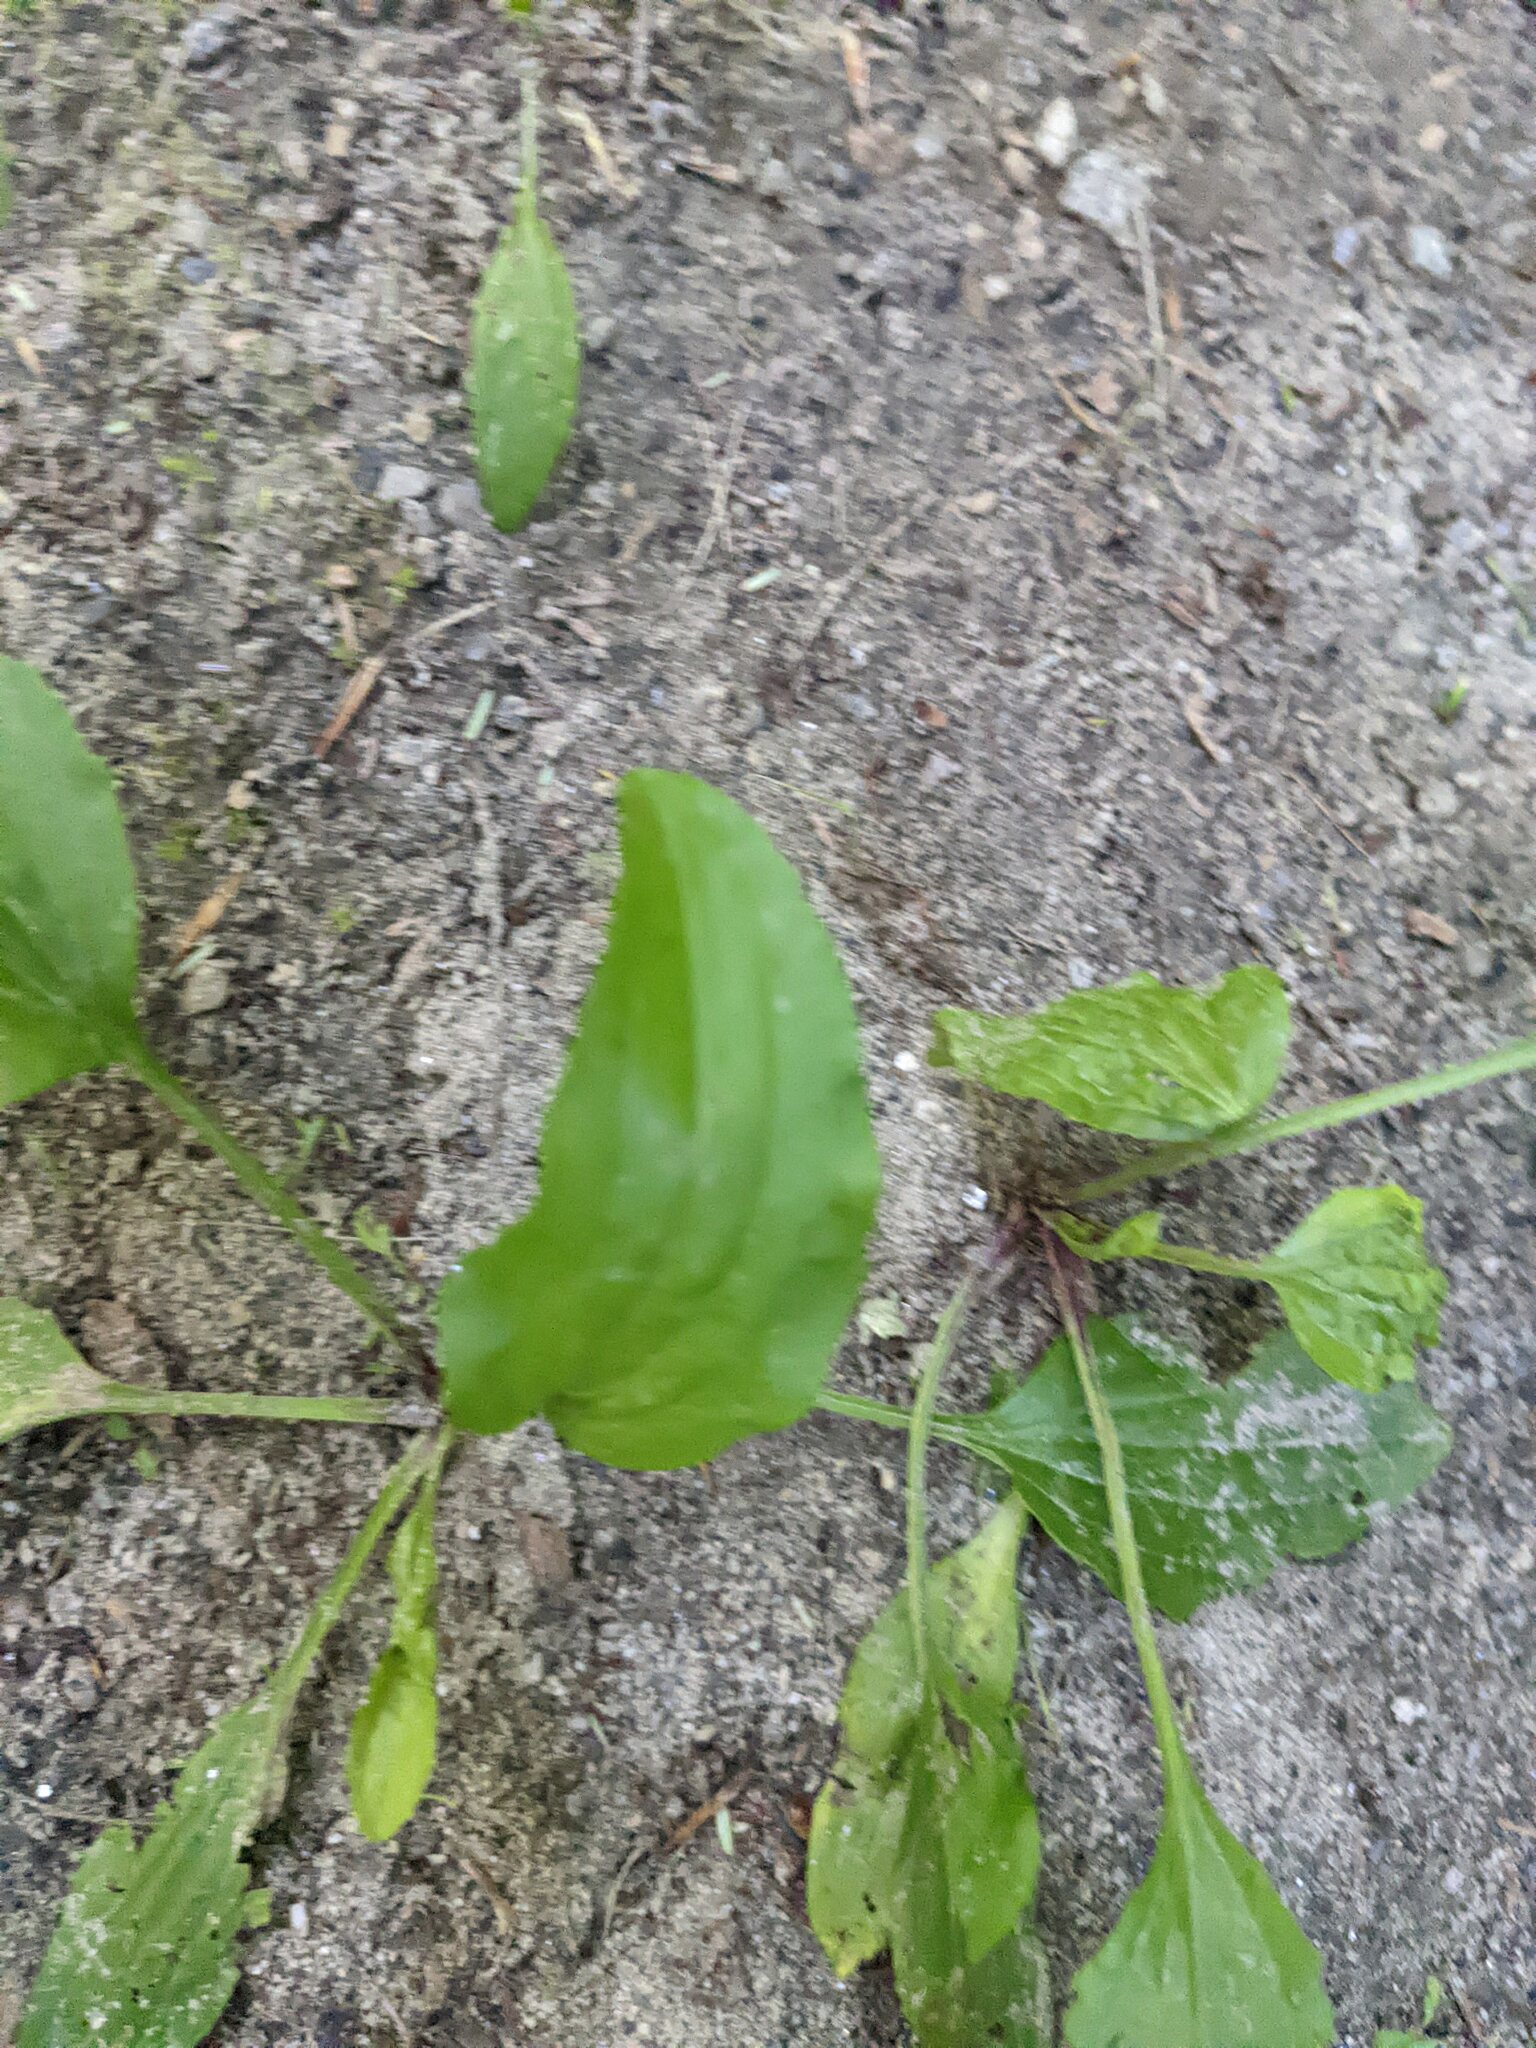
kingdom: Plantae
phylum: Tracheophyta
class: Magnoliopsida
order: Lamiales
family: Plantaginaceae
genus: Plantago
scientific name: Plantago rugelii
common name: American plantain
